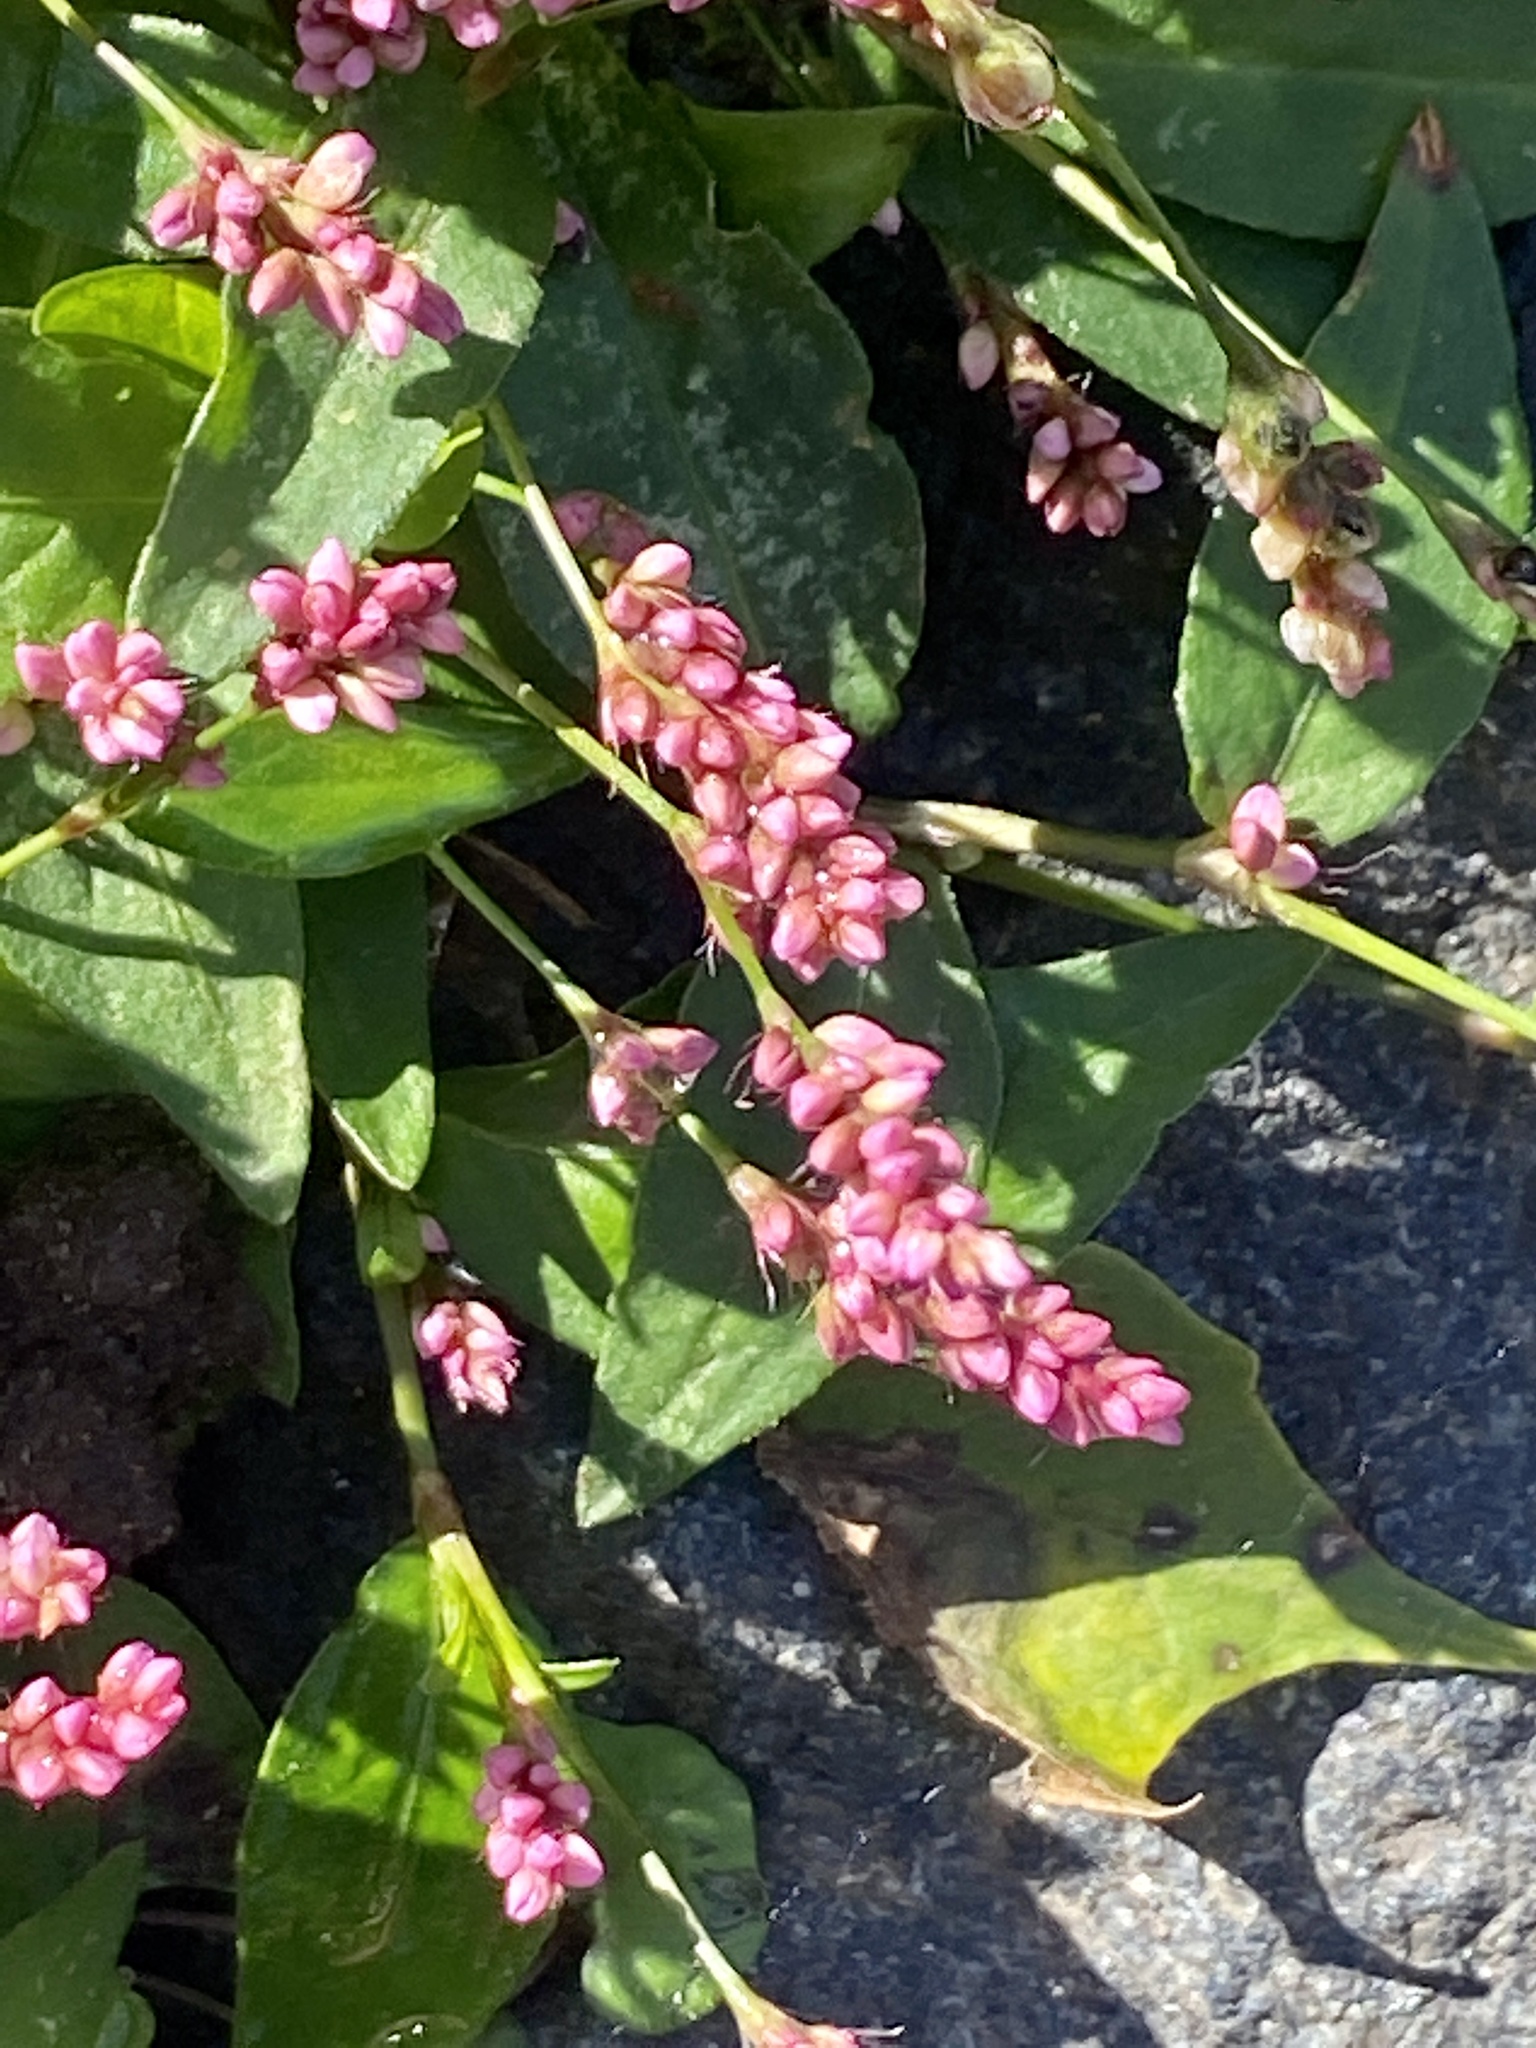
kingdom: Plantae
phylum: Tracheophyta
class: Magnoliopsida
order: Caryophyllales
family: Polygonaceae
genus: Persicaria
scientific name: Persicaria longiseta
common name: Bristly lady's-thumb
